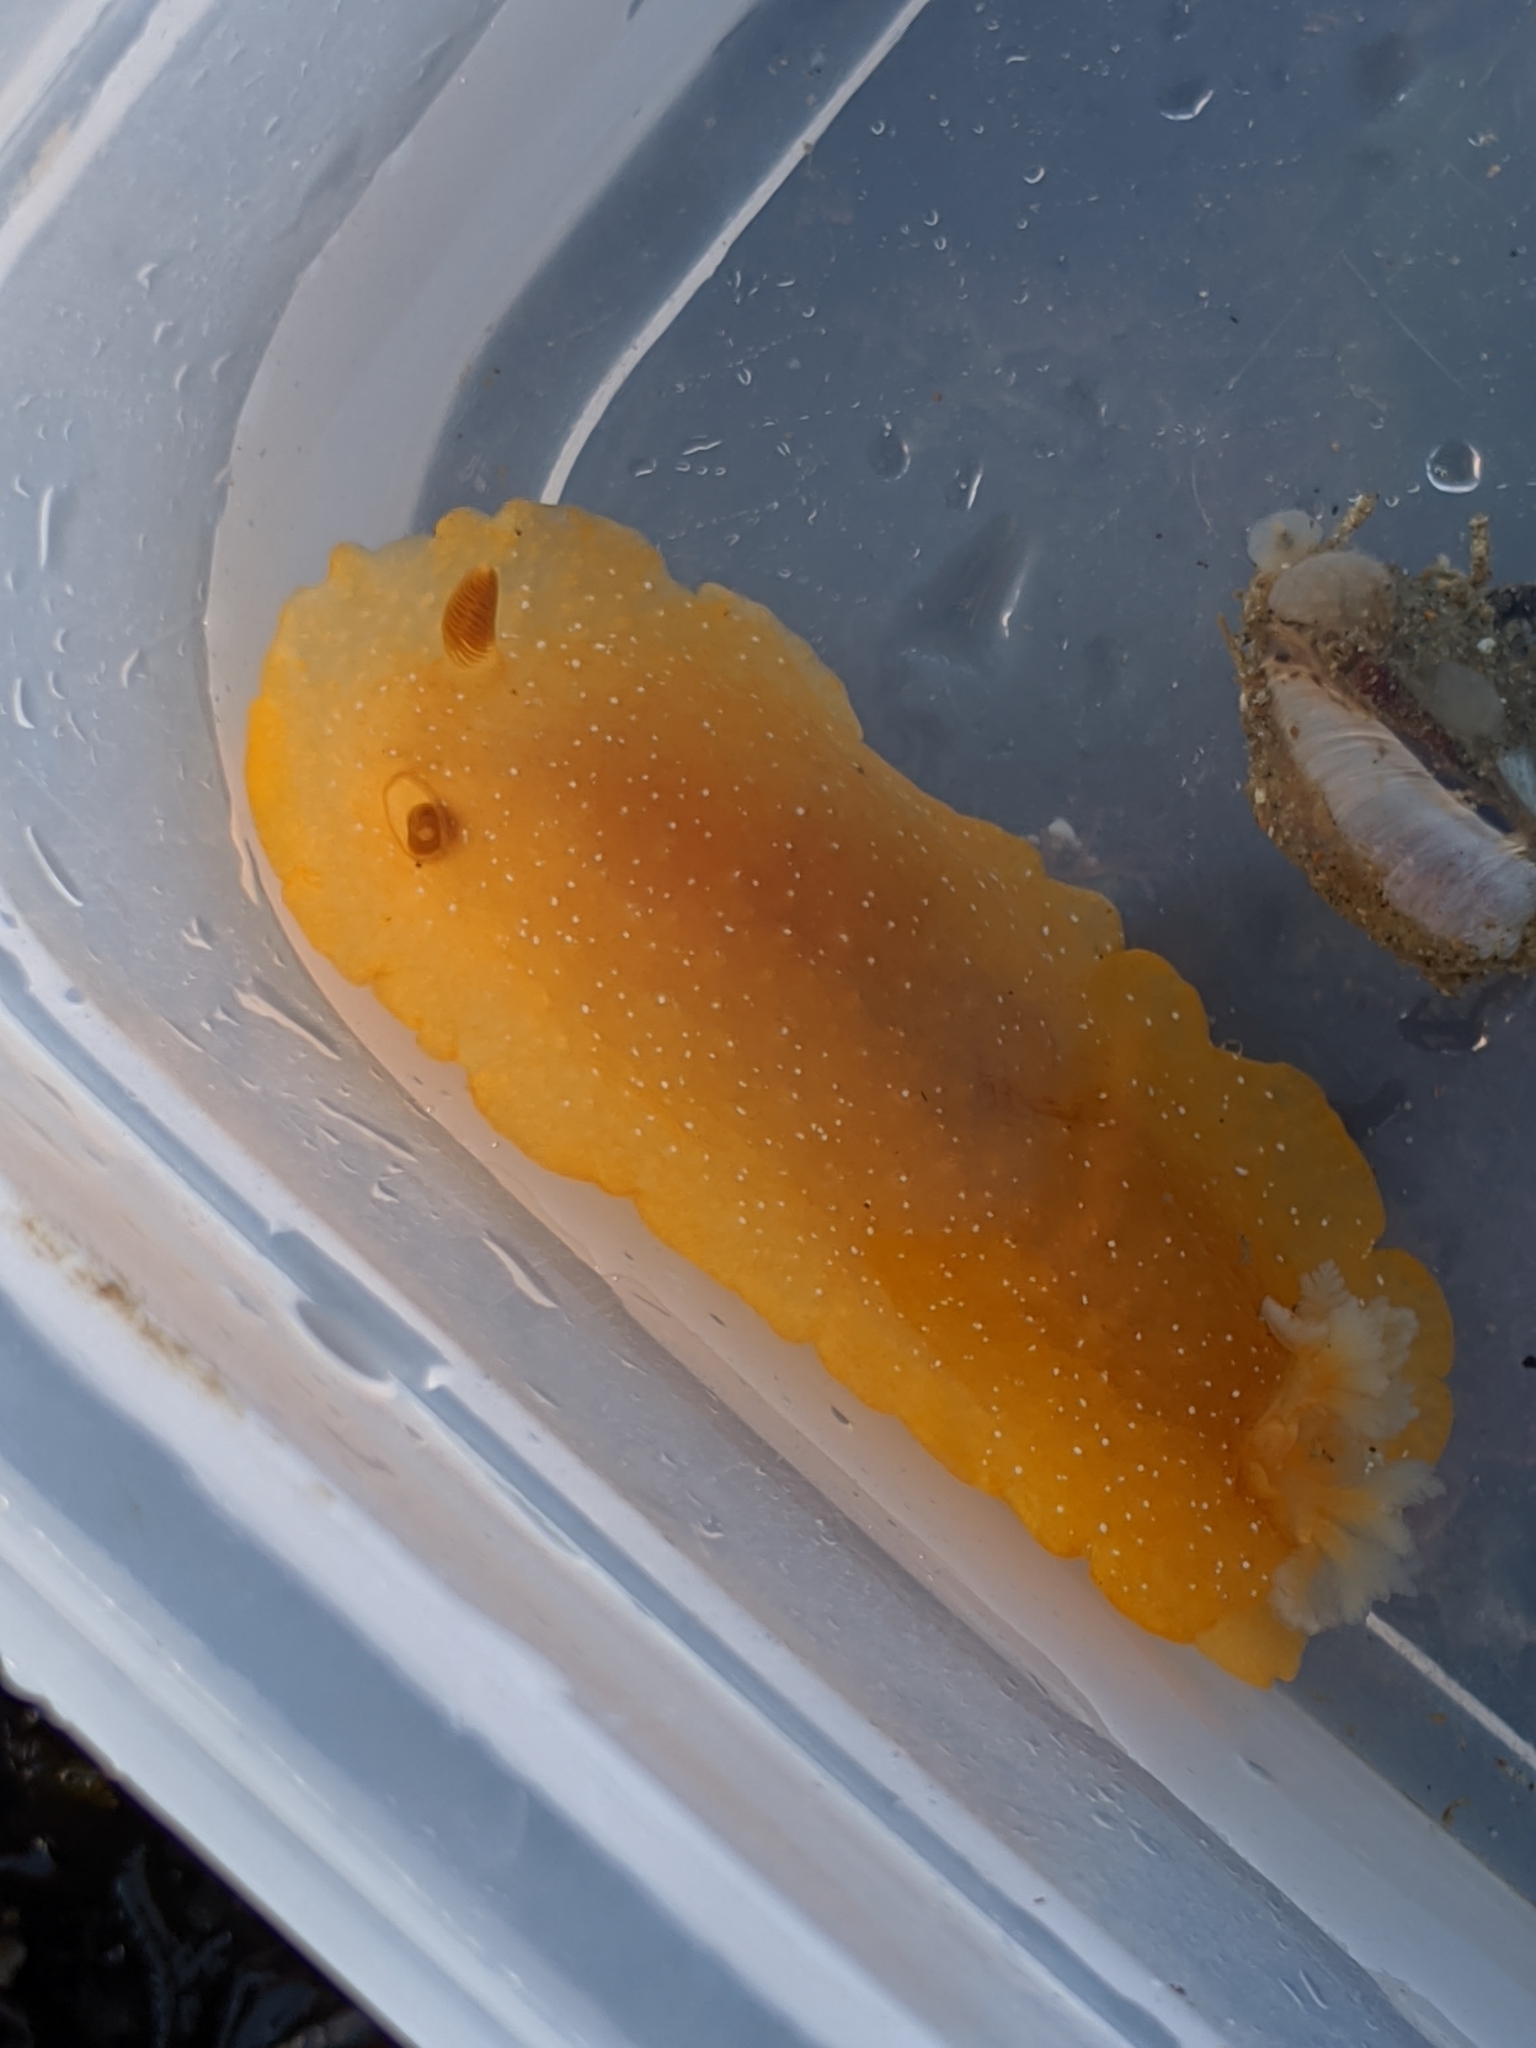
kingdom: Animalia
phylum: Mollusca
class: Gastropoda
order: Nudibranchia
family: Dendrodorididae
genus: Doriopsilla
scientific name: Doriopsilla fulva
